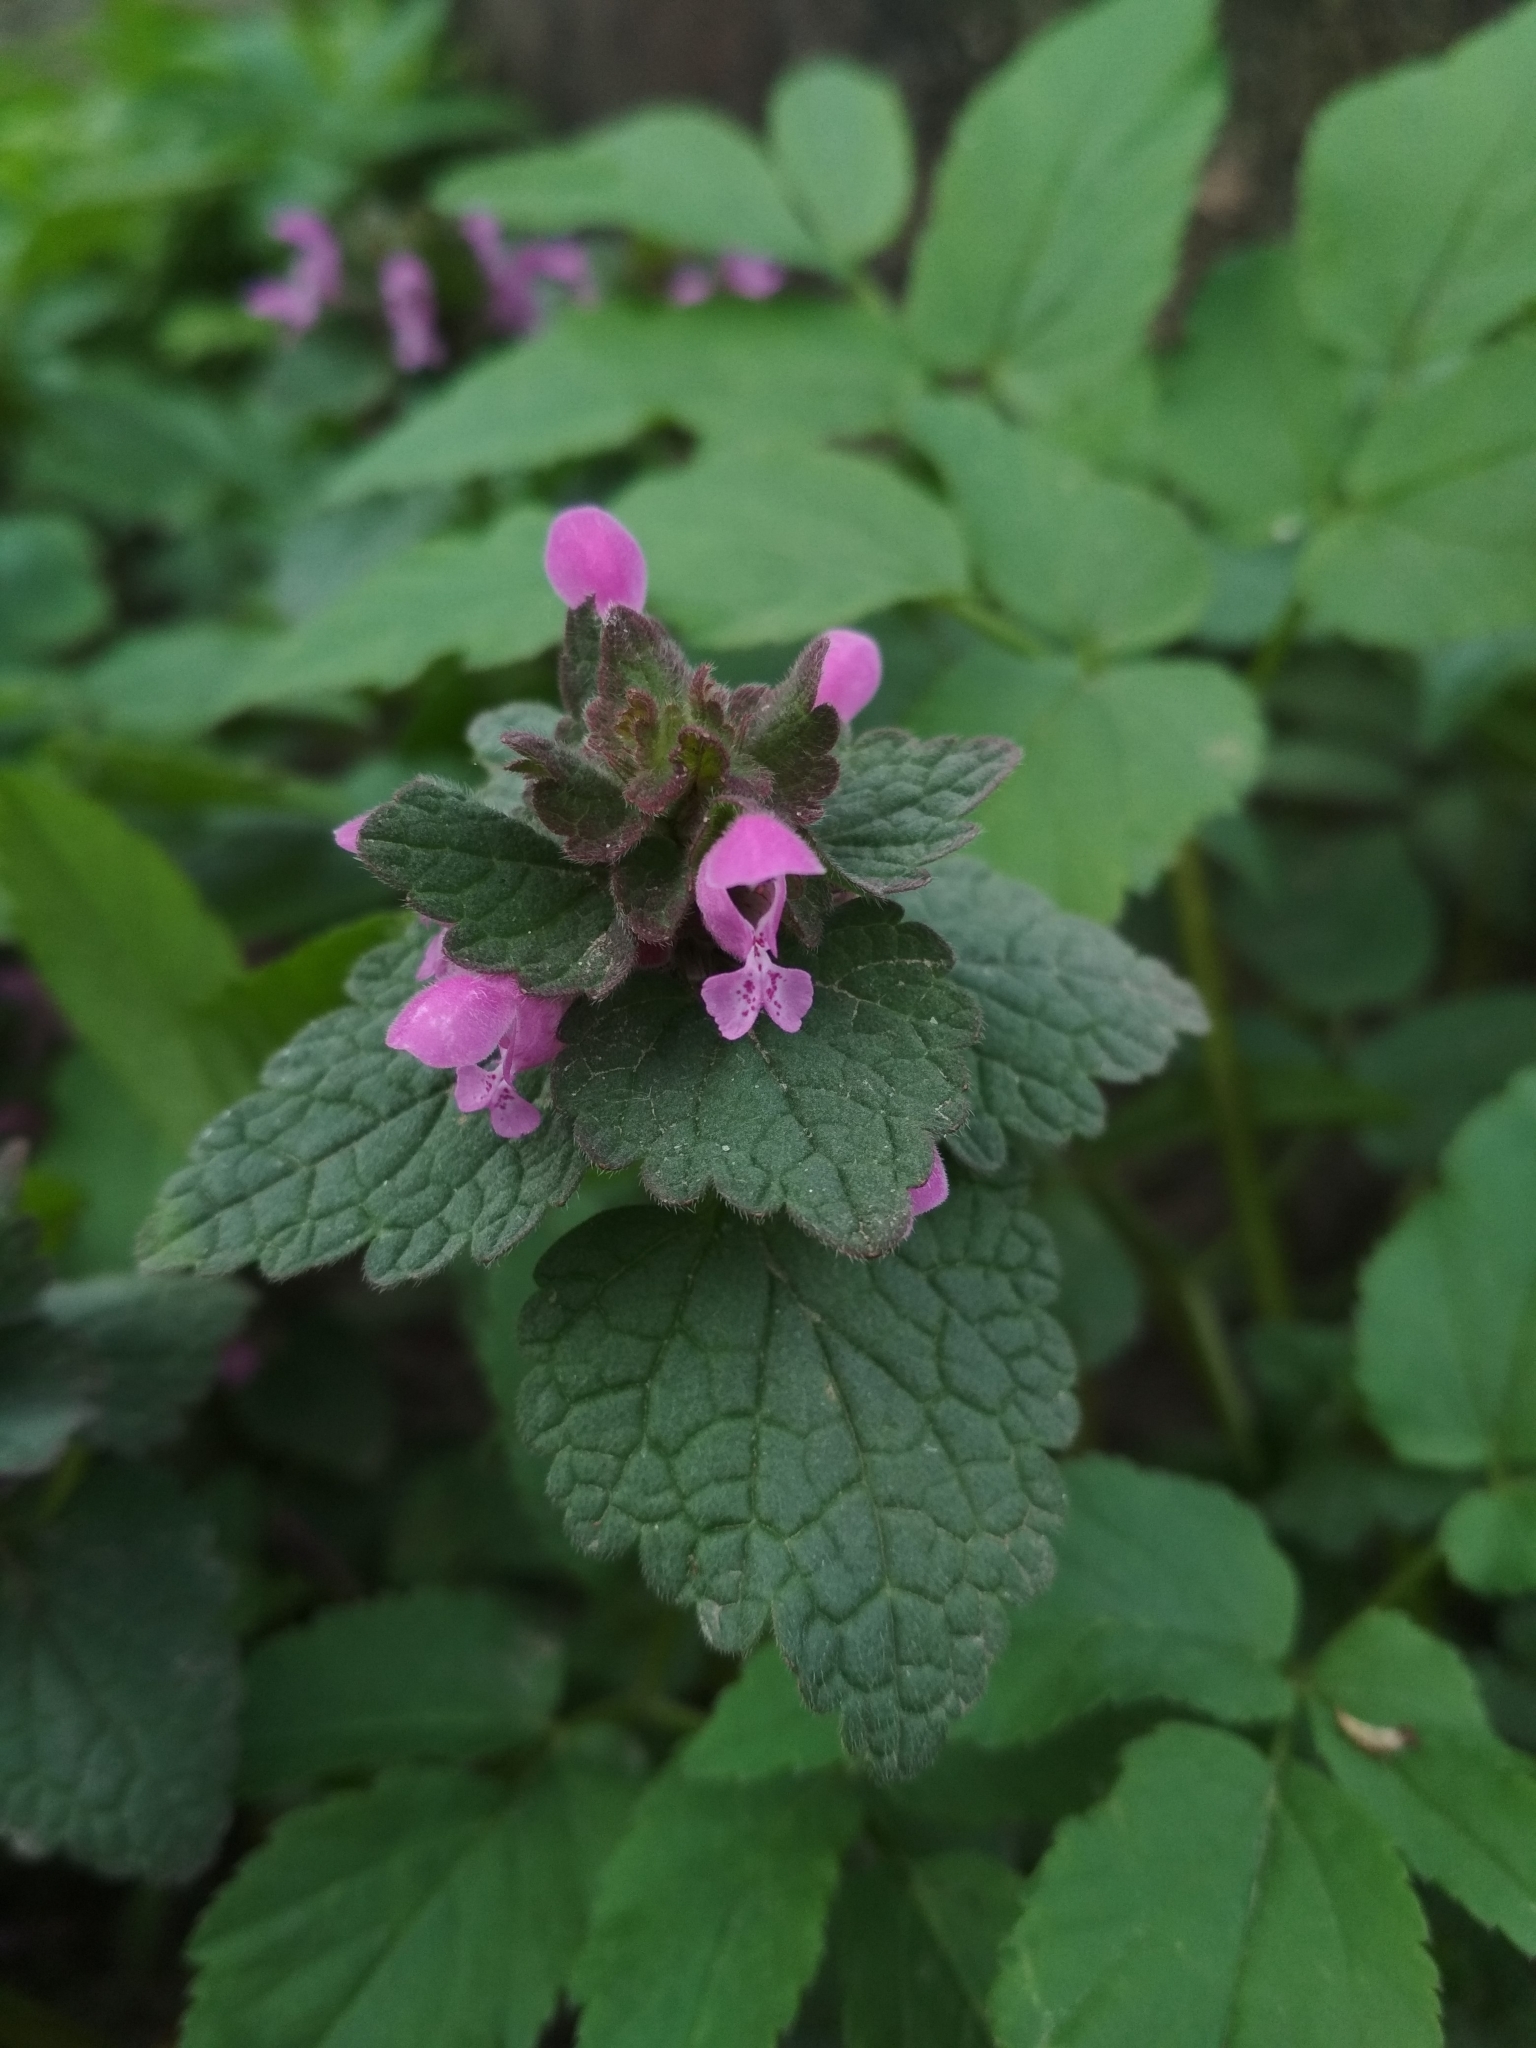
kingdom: Plantae
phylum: Tracheophyta
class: Magnoliopsida
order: Lamiales
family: Lamiaceae
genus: Lamium
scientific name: Lamium purpureum
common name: Red dead-nettle
